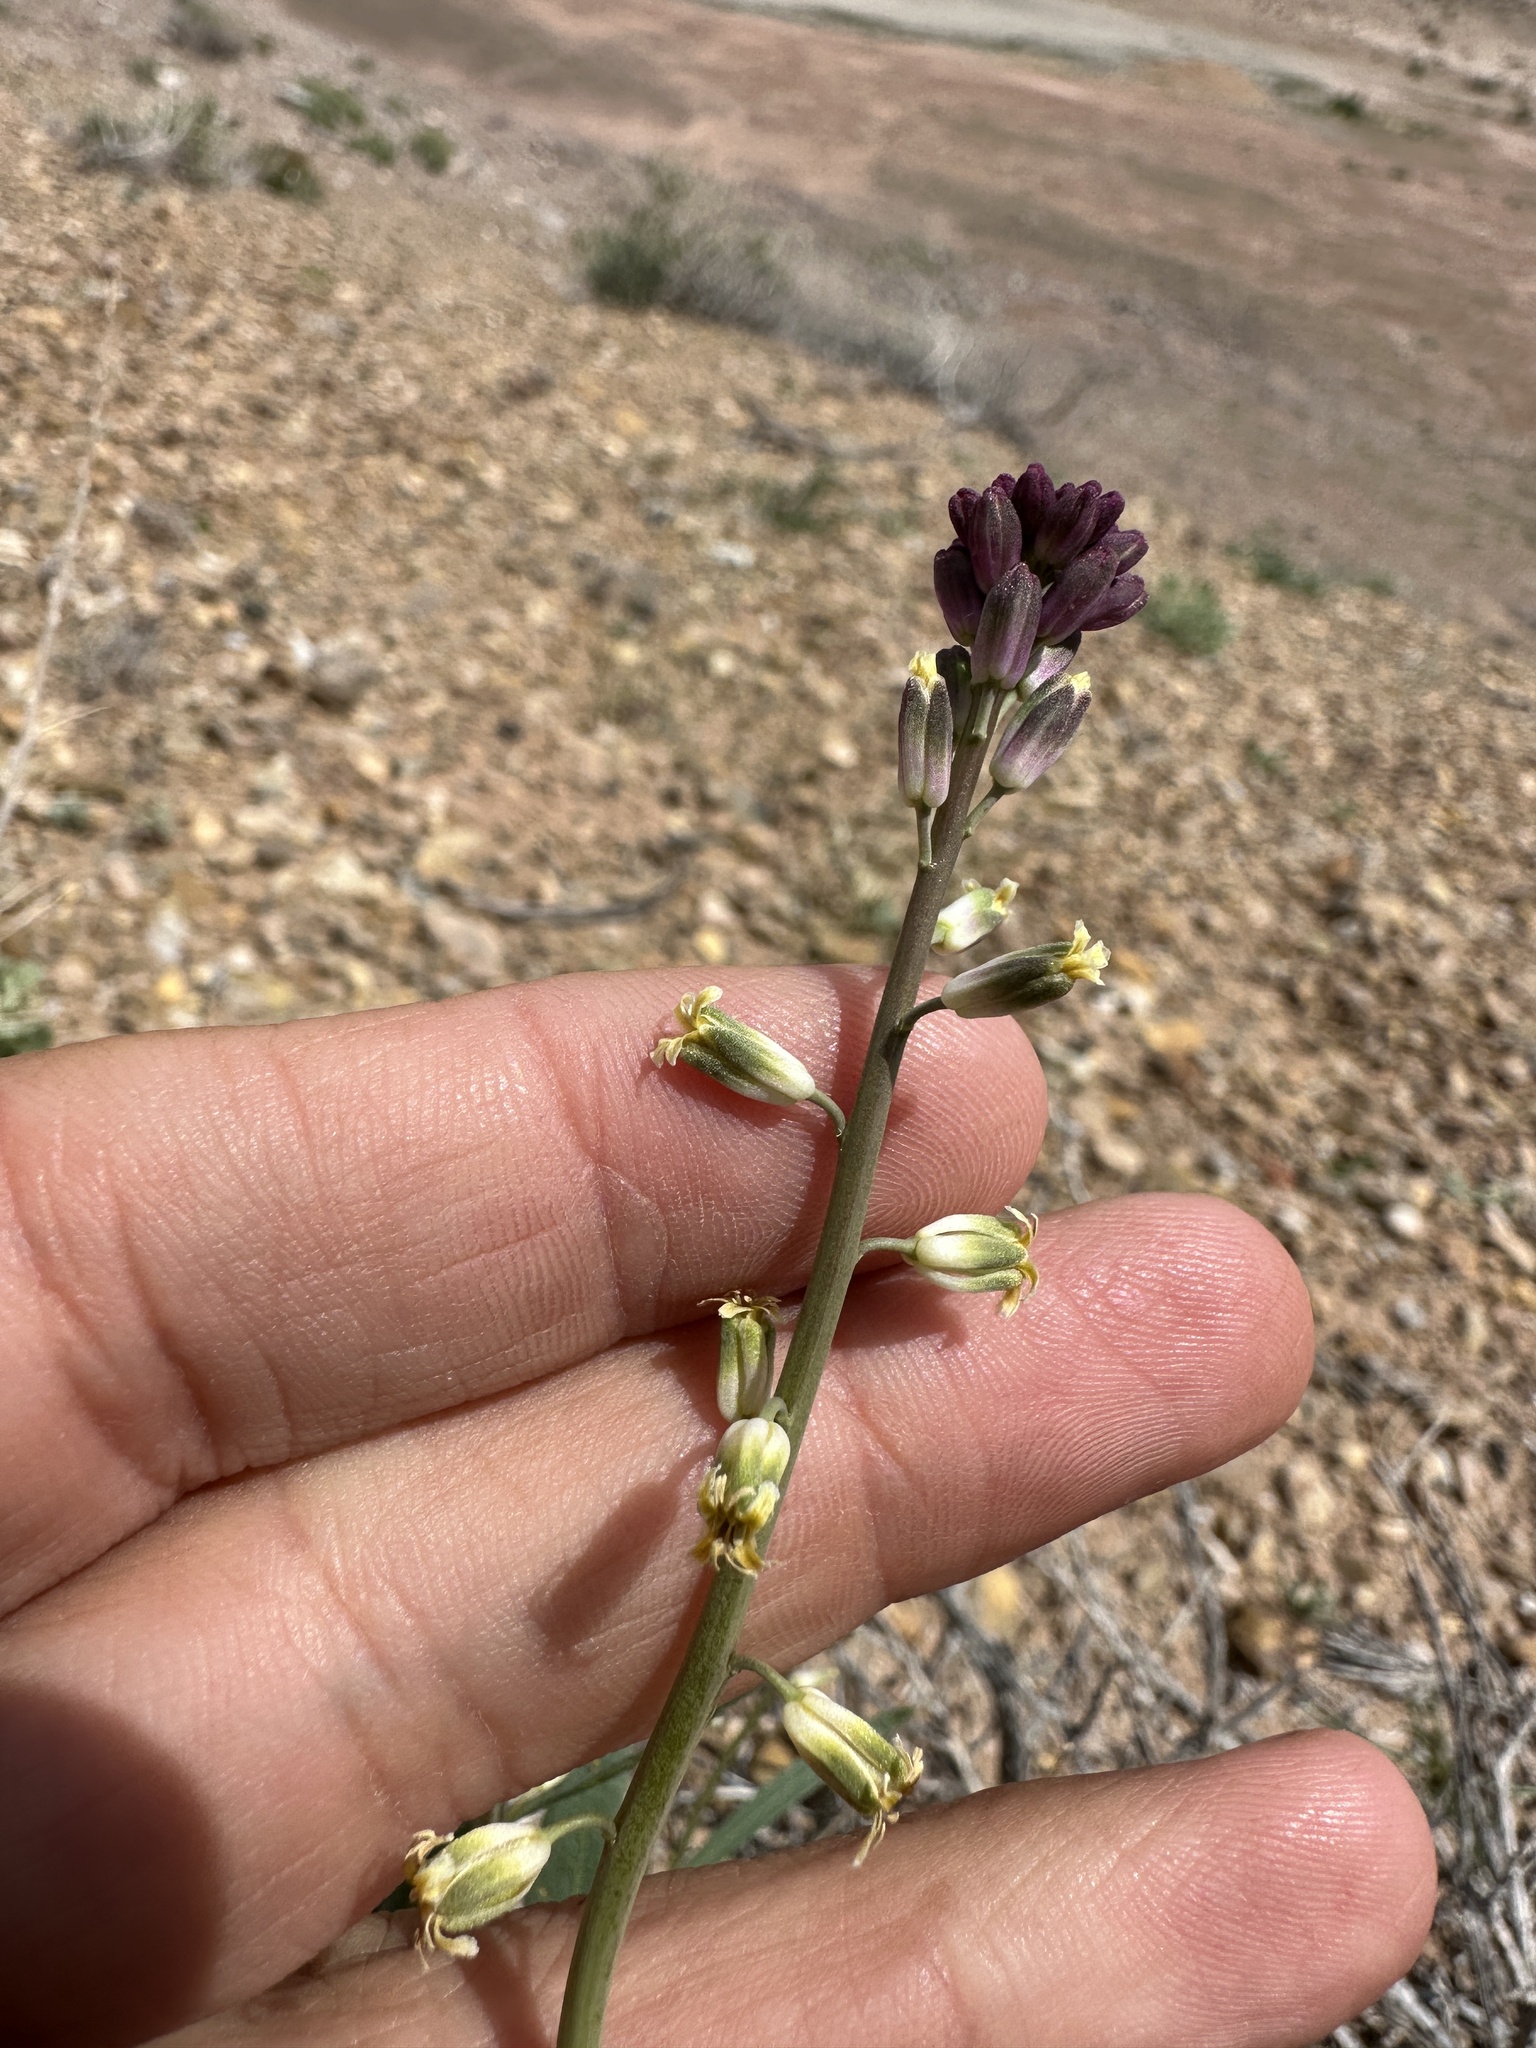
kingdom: Plantae
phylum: Tracheophyta
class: Magnoliopsida
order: Brassicales
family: Brassicaceae
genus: Streptanthus
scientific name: Streptanthus longirostris
